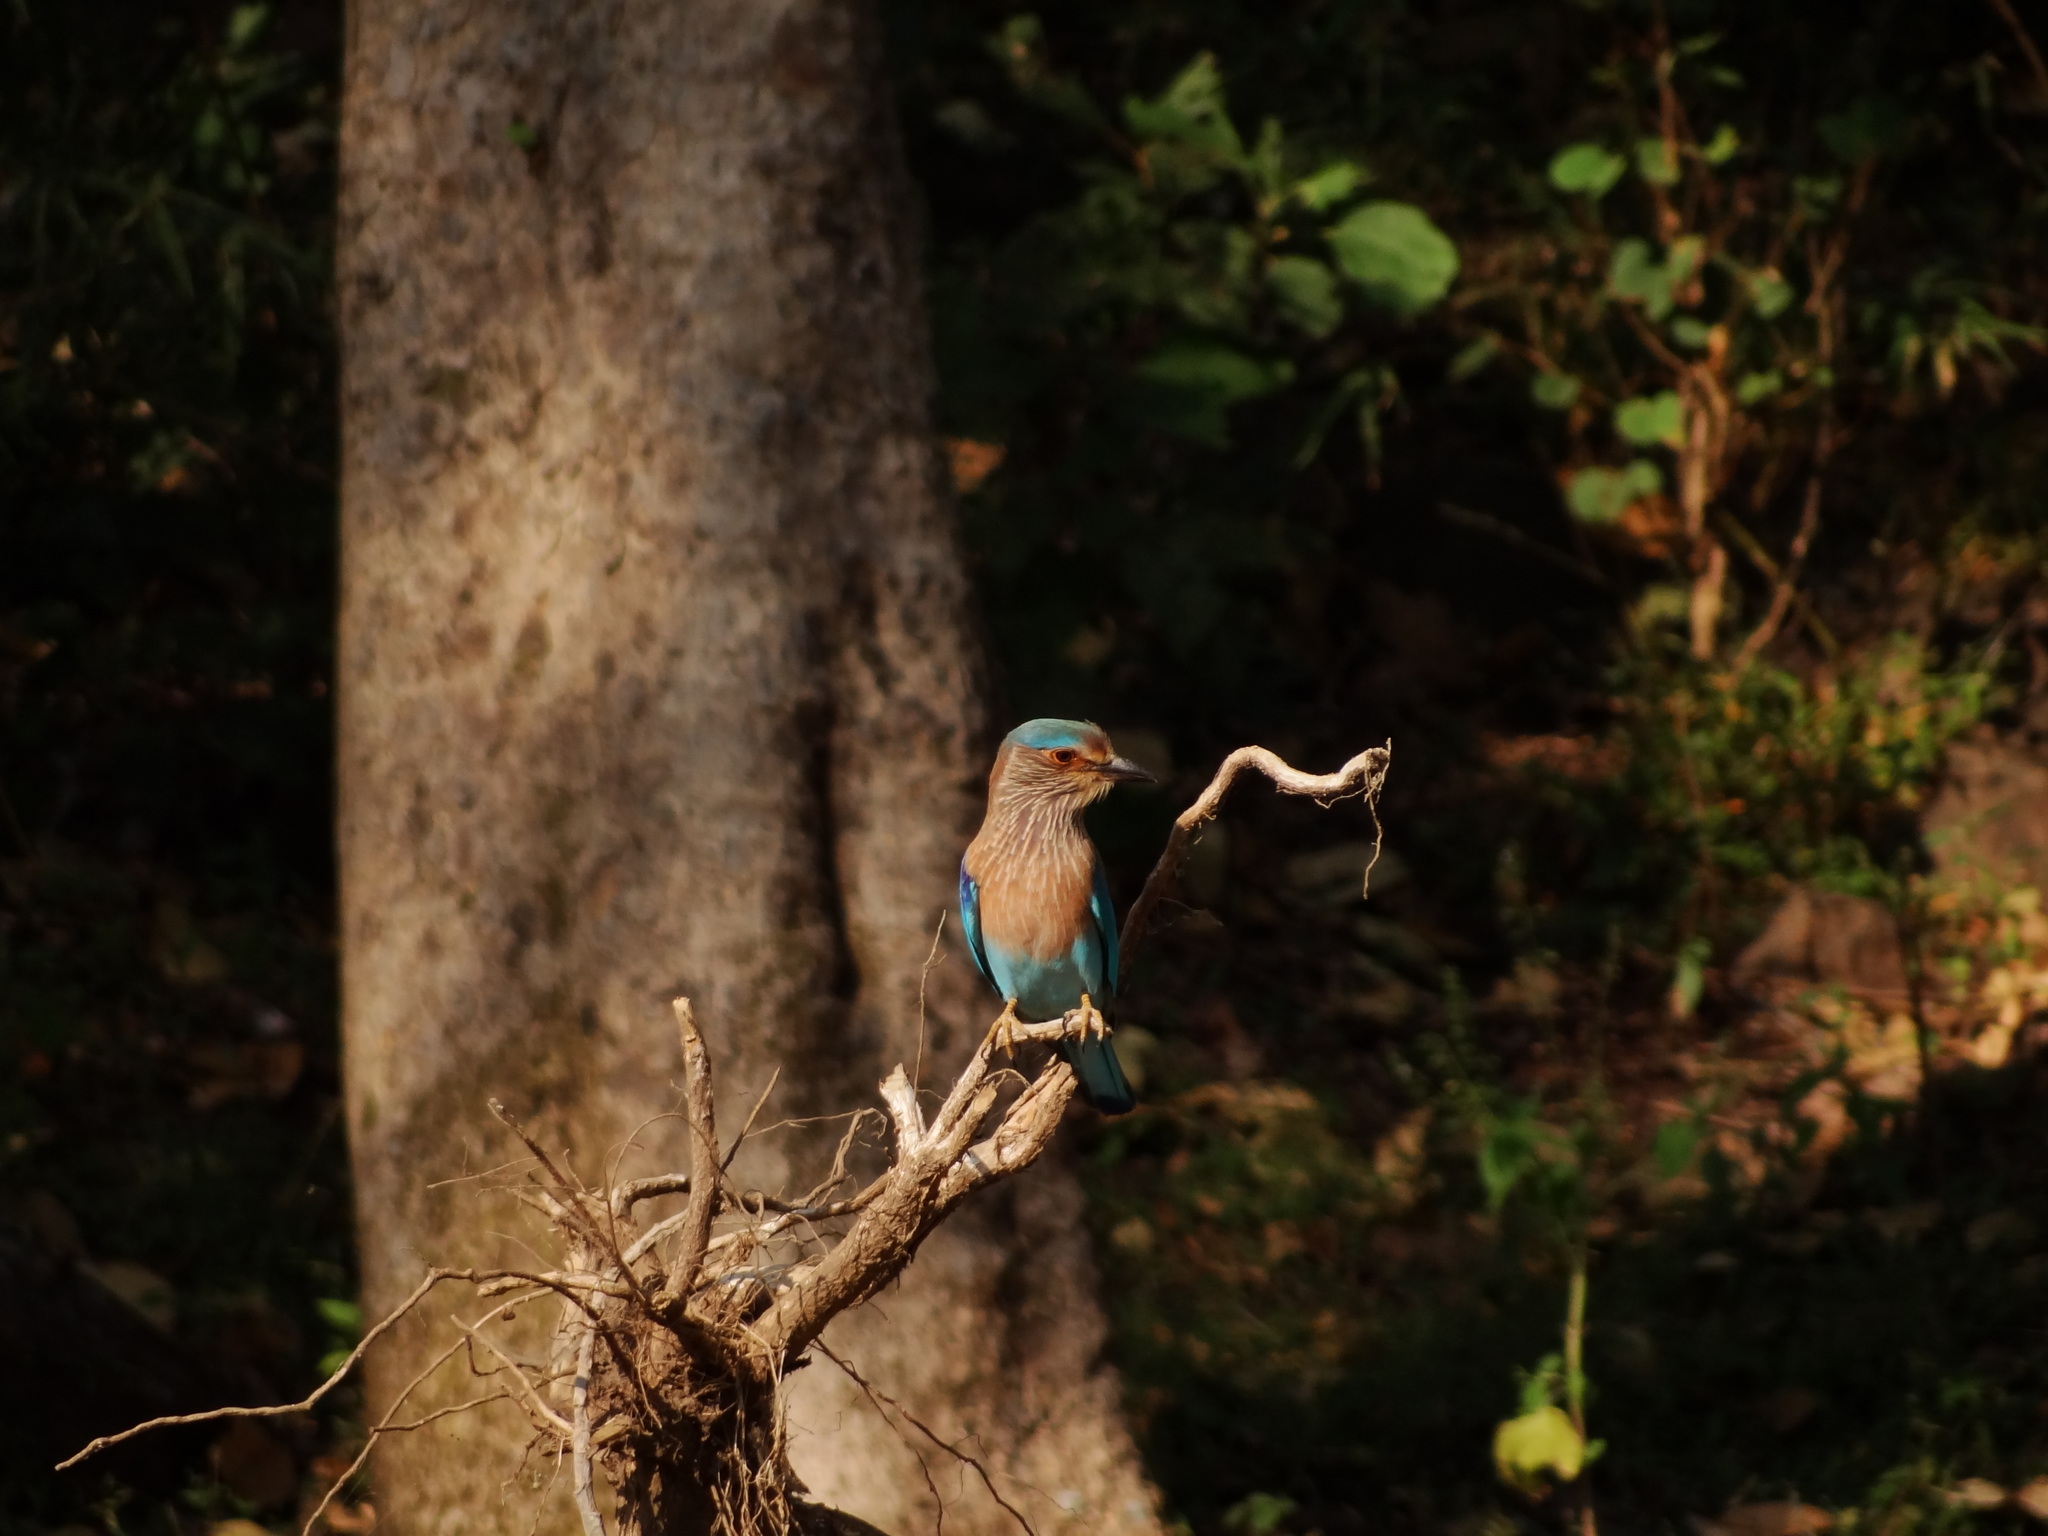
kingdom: Animalia
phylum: Chordata
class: Aves
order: Coraciiformes
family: Coraciidae
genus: Coracias
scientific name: Coracias benghalensis
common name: Indian roller
